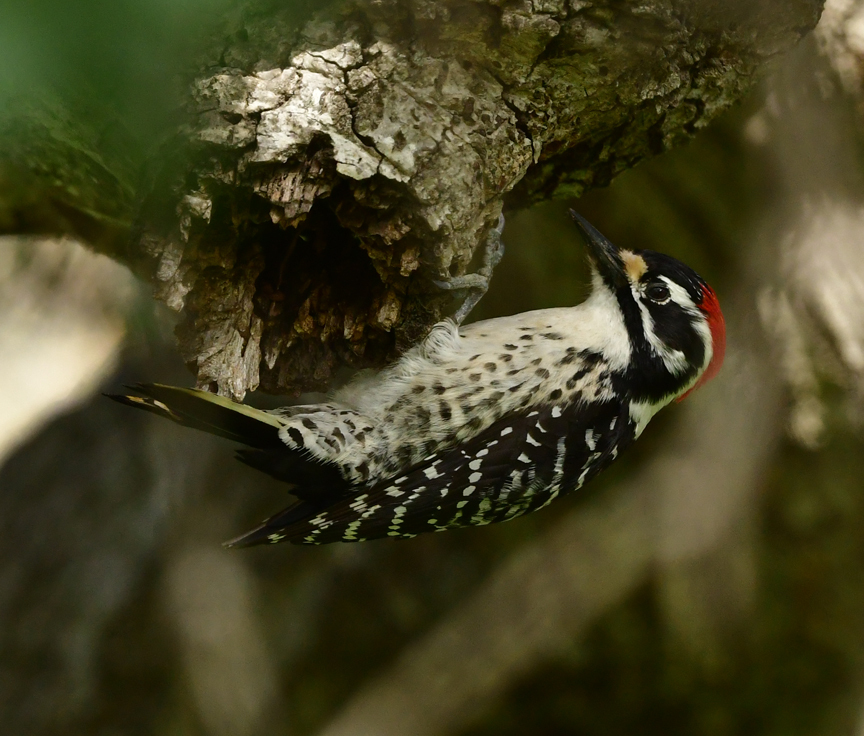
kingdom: Animalia
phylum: Chordata
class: Aves
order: Piciformes
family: Picidae
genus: Dryobates
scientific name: Dryobates nuttallii
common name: Nuttall's woodpecker
